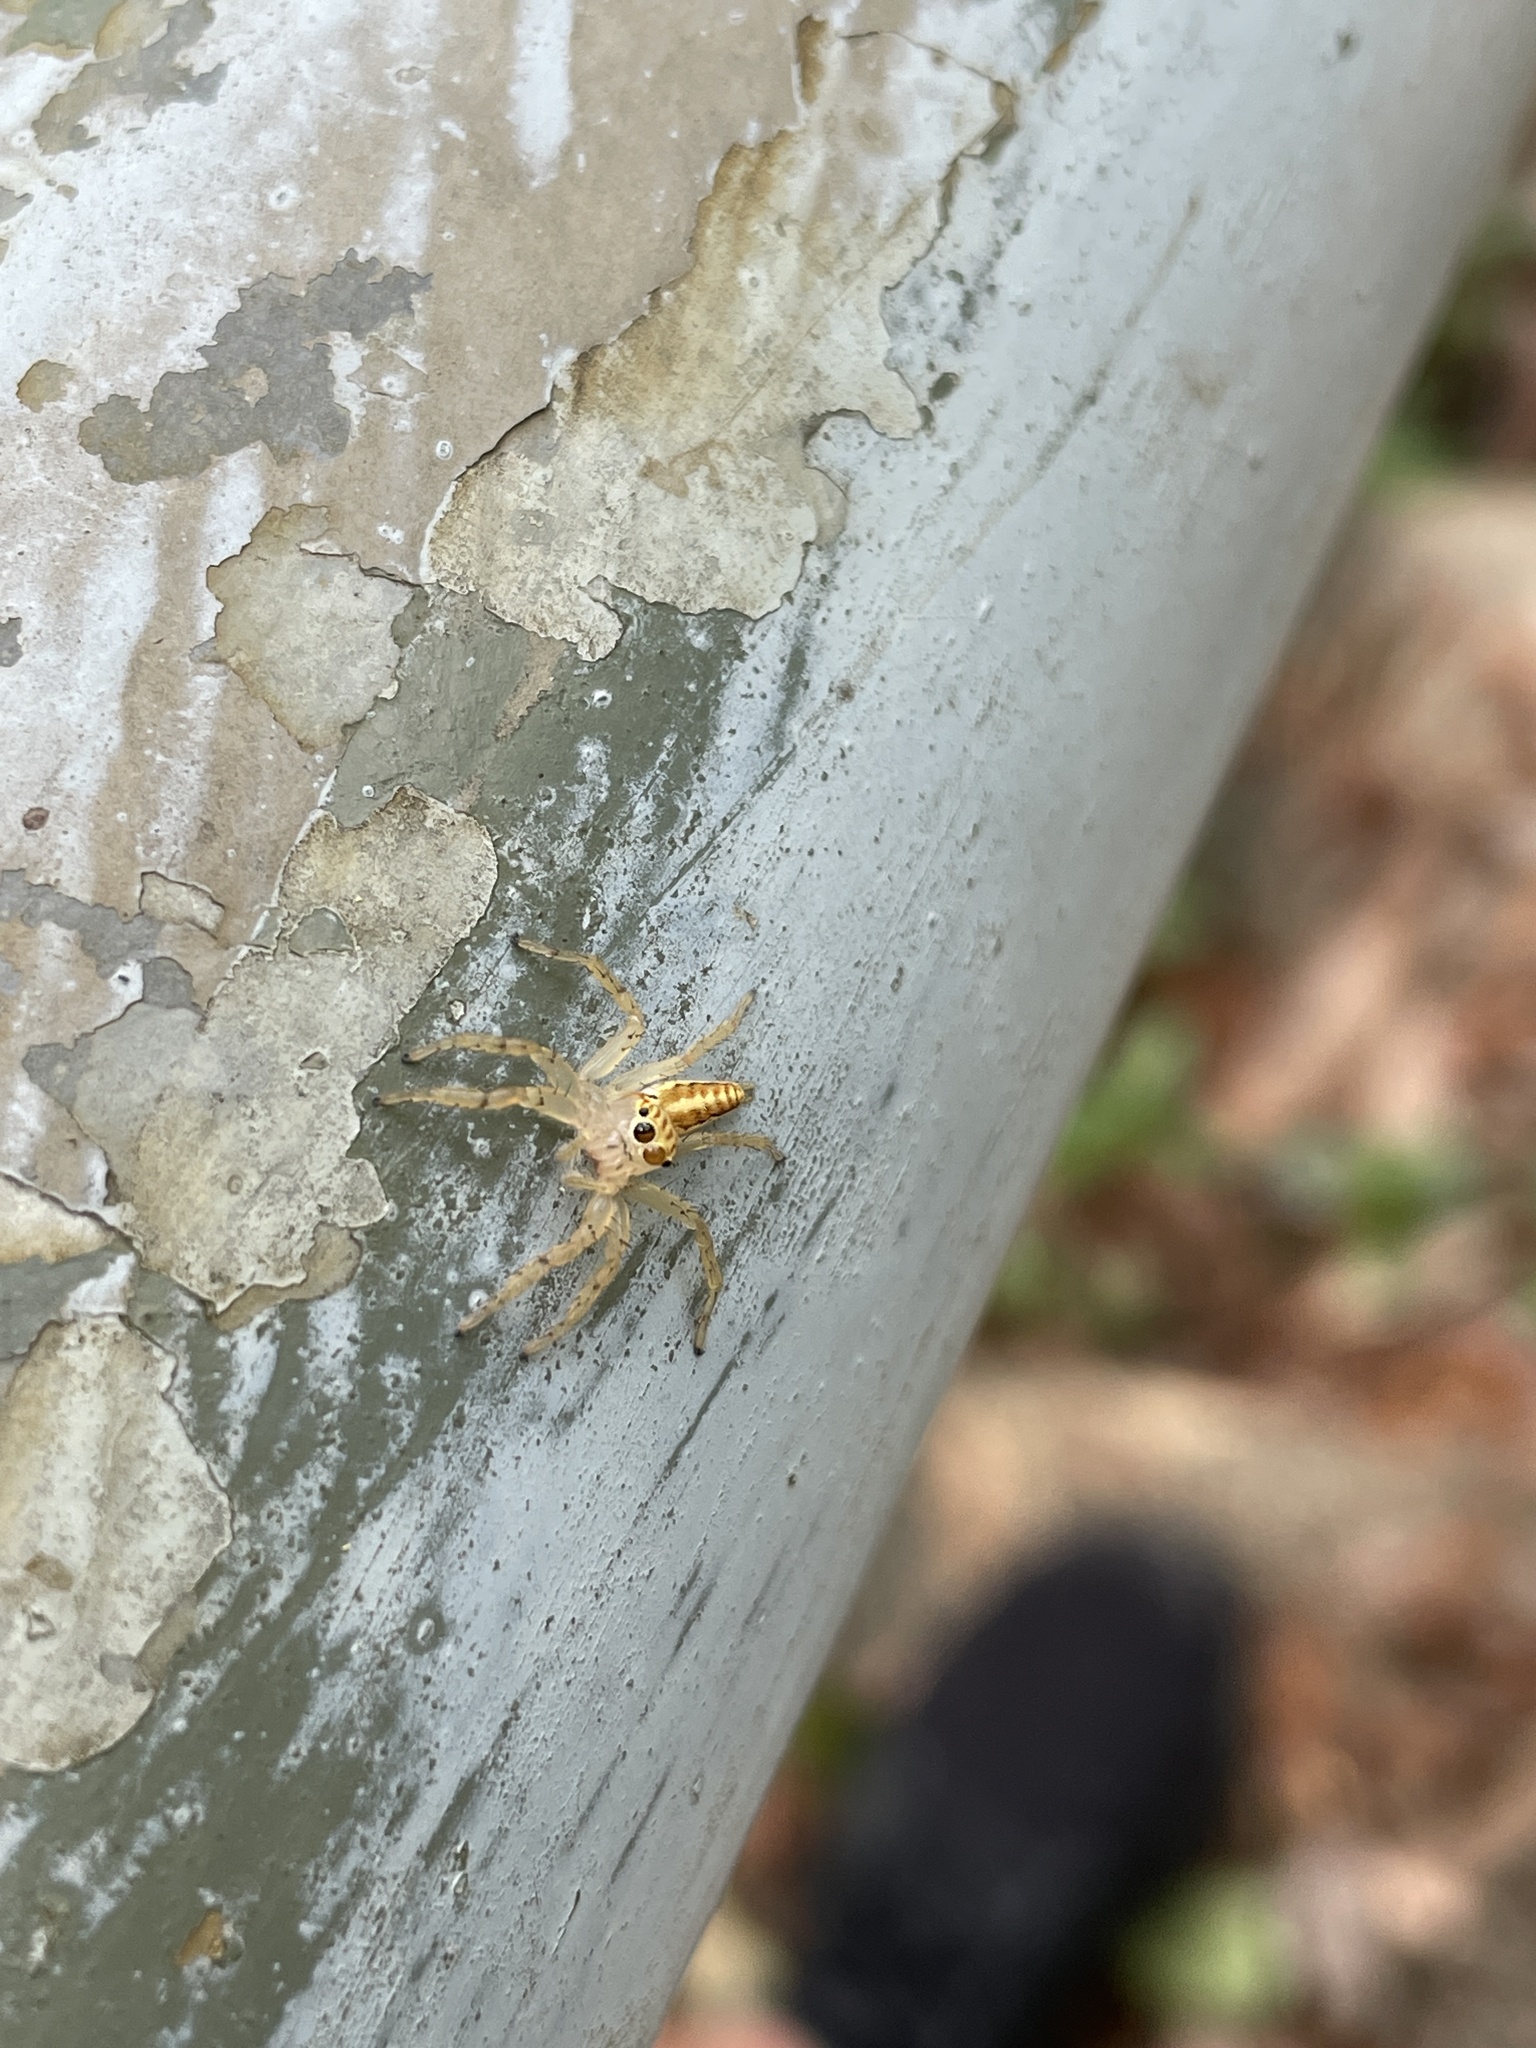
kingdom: Animalia
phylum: Arthropoda
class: Arachnida
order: Araneae
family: Salticidae
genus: Telamonia
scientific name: Telamonia caprina
